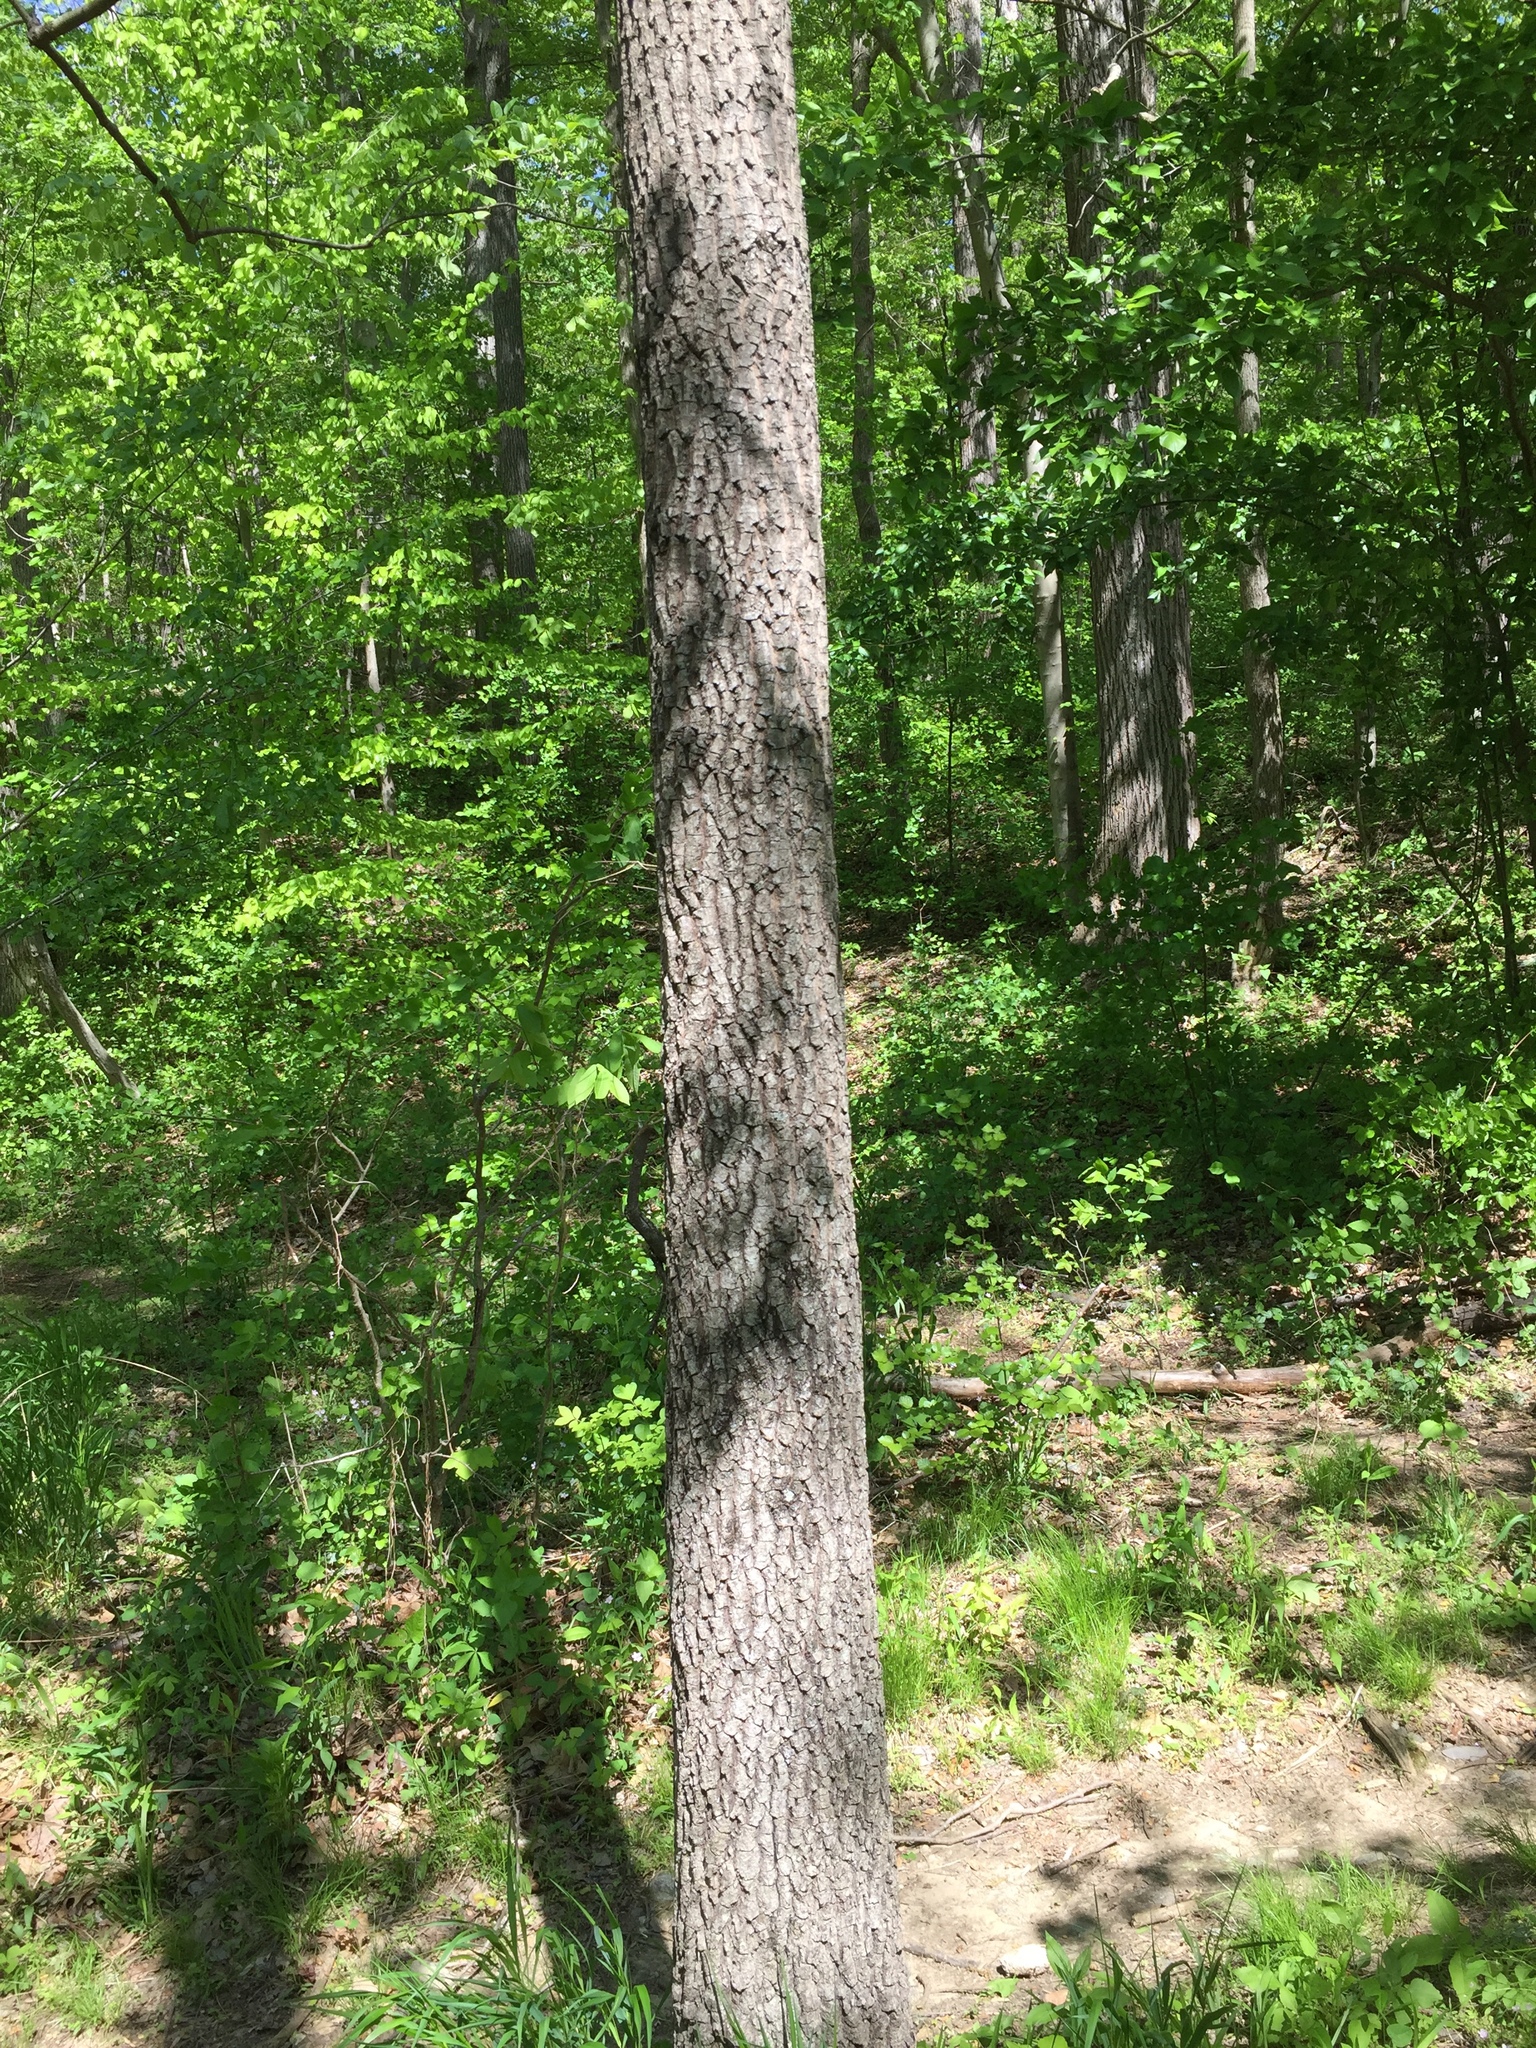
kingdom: Plantae
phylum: Tracheophyta
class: Magnoliopsida
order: Ericales
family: Ebenaceae
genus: Diospyros
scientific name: Diospyros virginiana
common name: Persimmon
